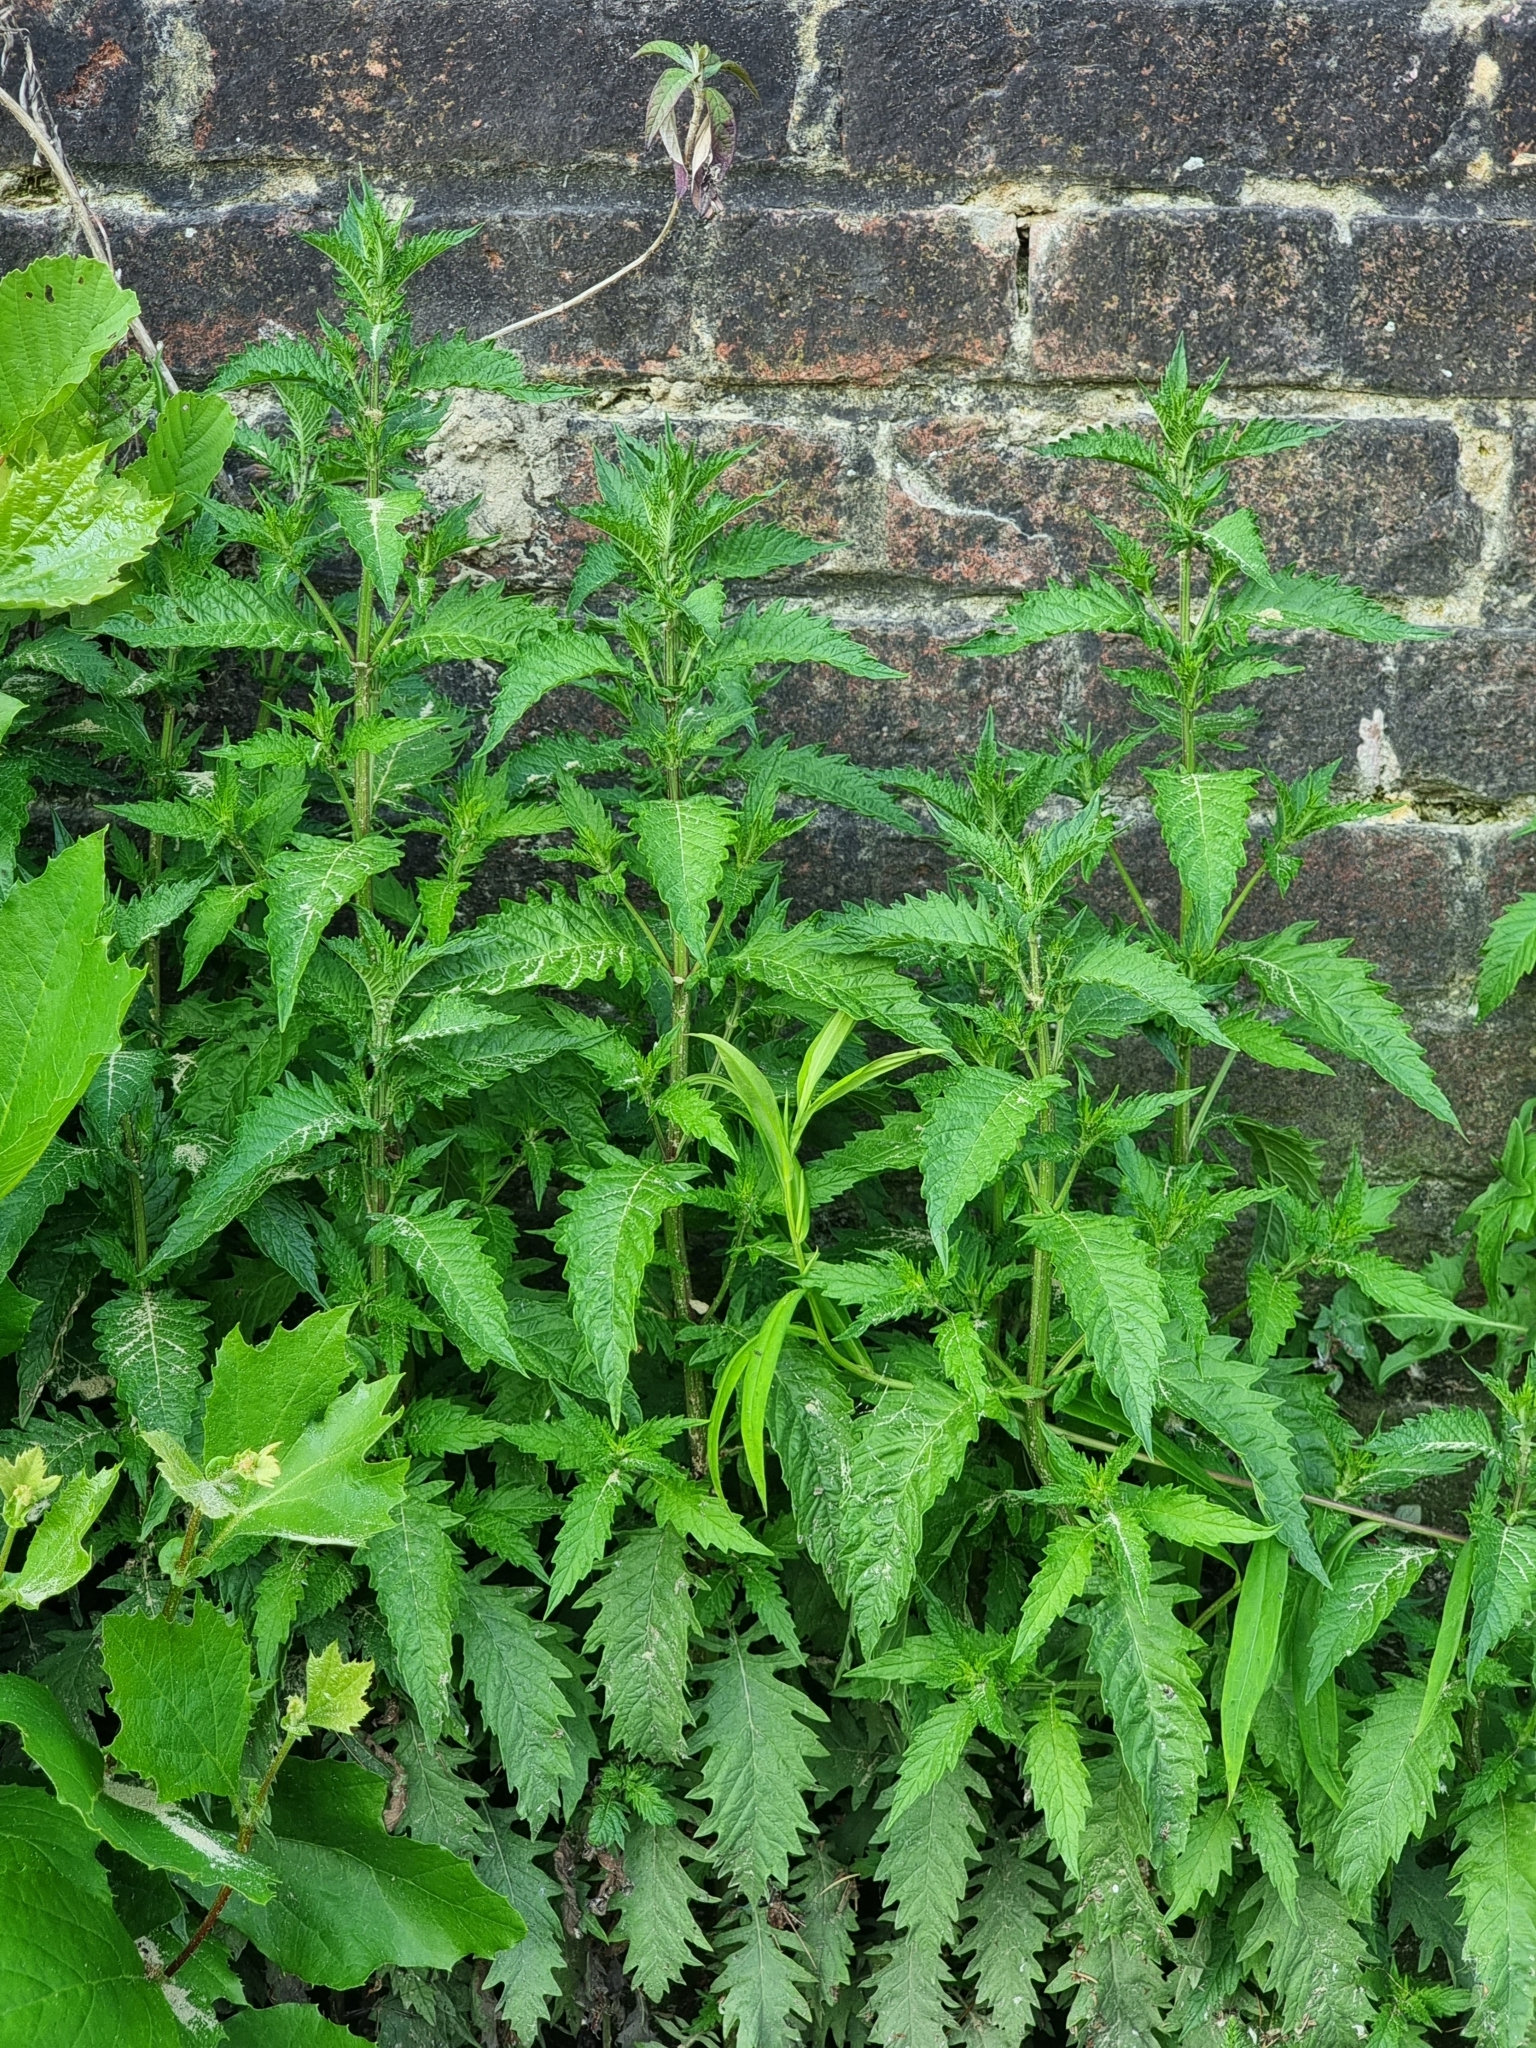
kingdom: Plantae
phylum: Tracheophyta
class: Magnoliopsida
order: Lamiales
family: Lamiaceae
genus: Lycopus
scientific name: Lycopus europaeus
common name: European bugleweed
